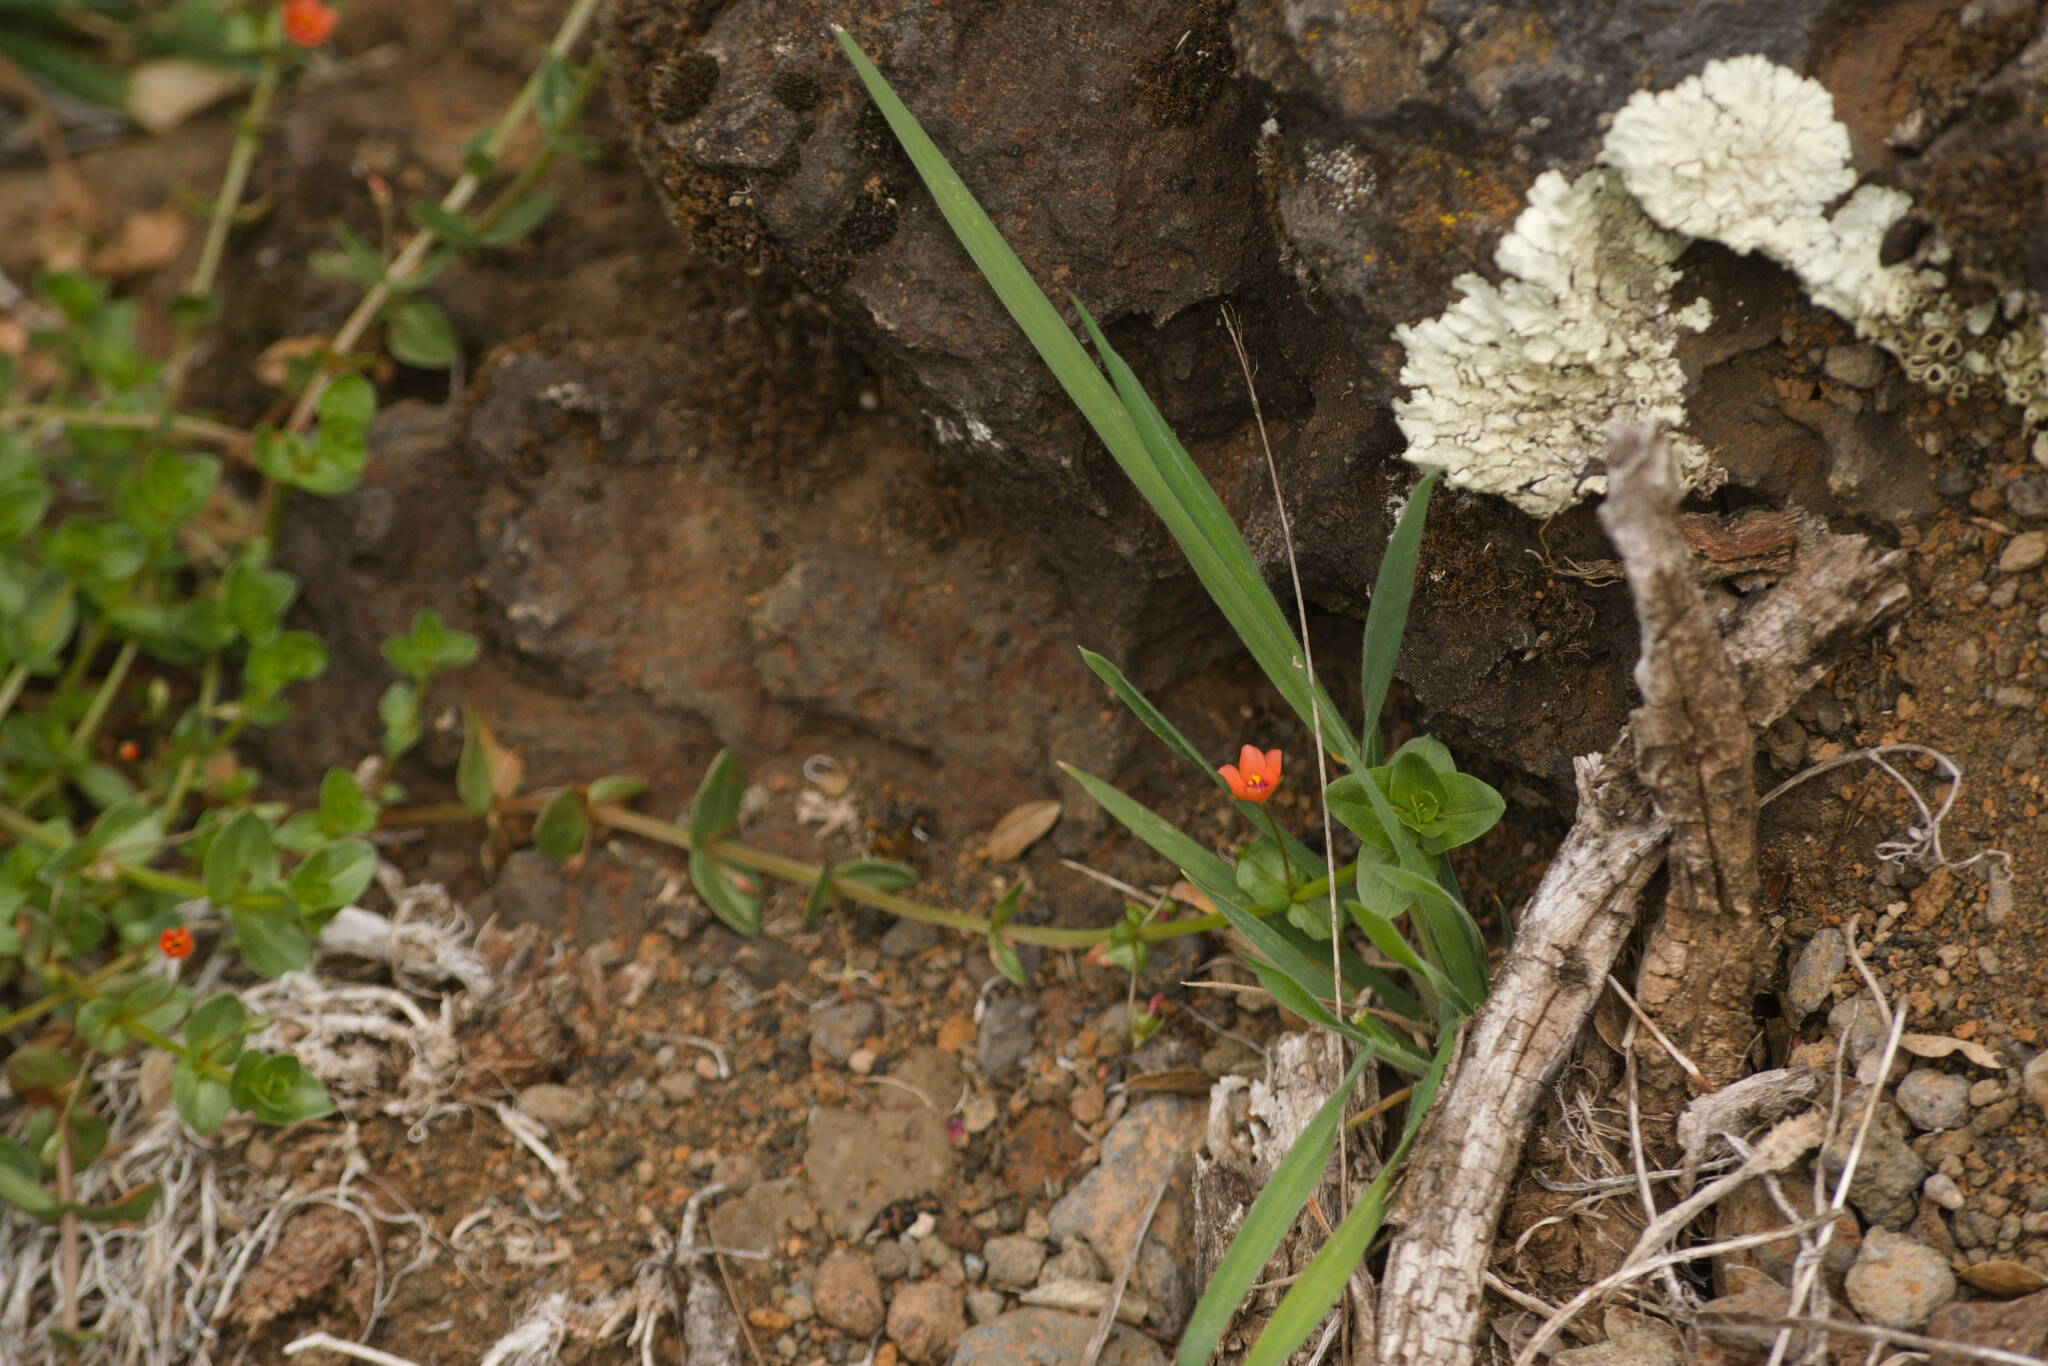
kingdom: Plantae
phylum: Tracheophyta
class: Magnoliopsida
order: Ericales
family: Primulaceae
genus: Lysimachia
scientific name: Lysimachia arvensis
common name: Scarlet pimpernel
